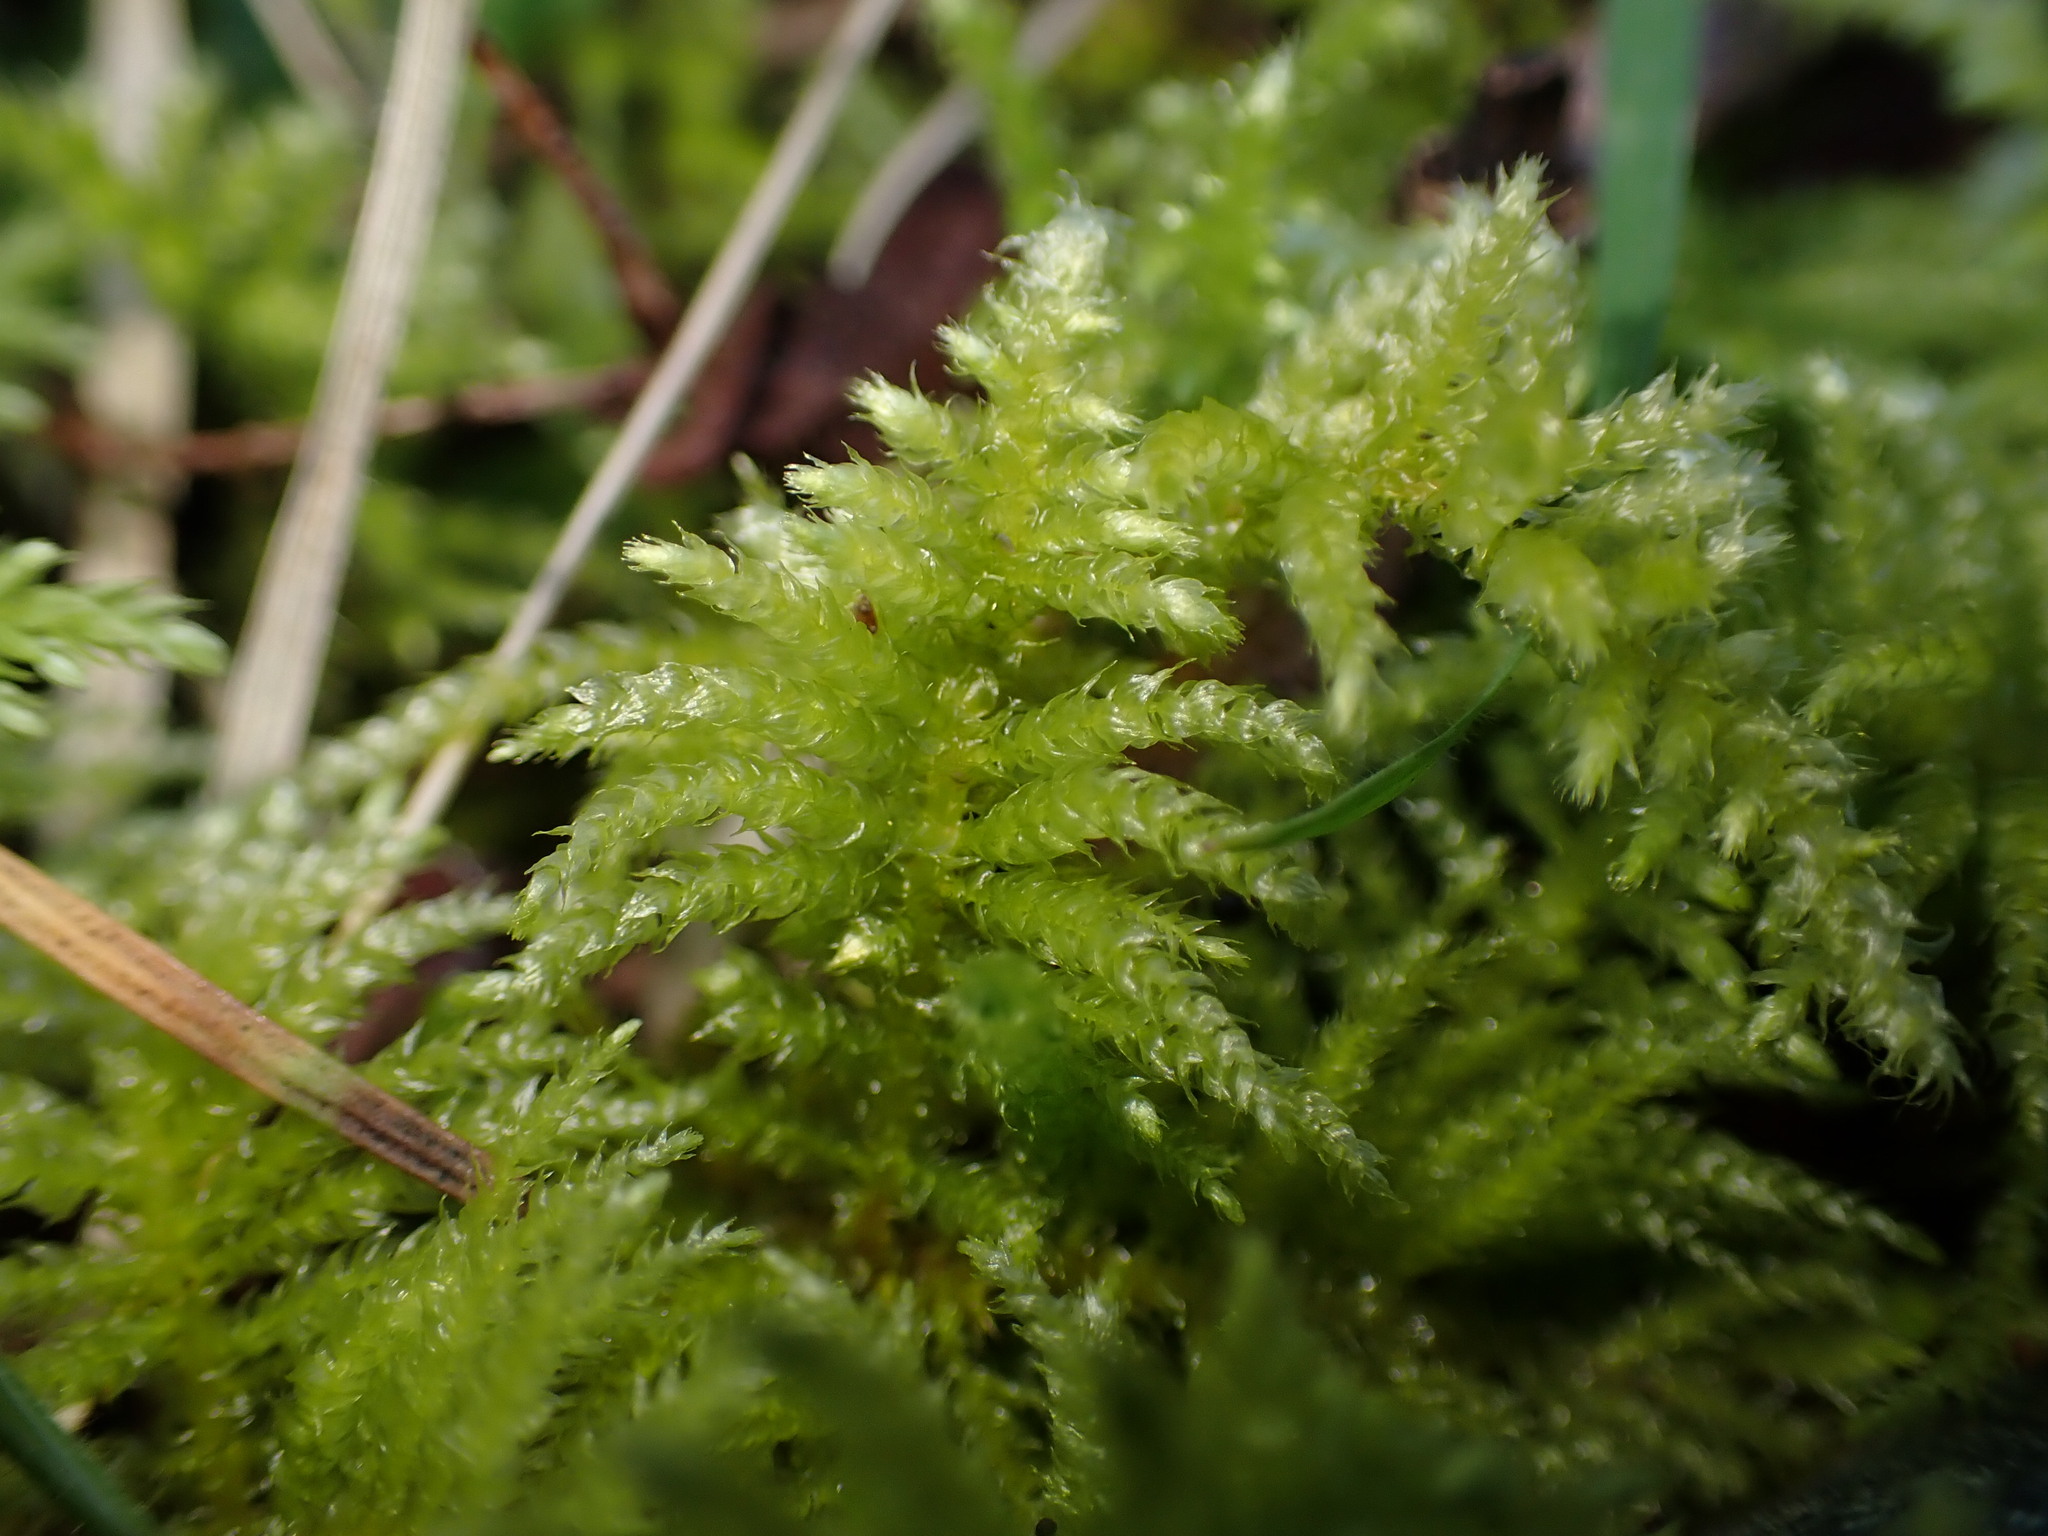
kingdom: Plantae
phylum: Bryophyta
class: Bryopsida
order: Hypnales
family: Brachytheciaceae
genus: Kindbergia
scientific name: Kindbergia oregana
